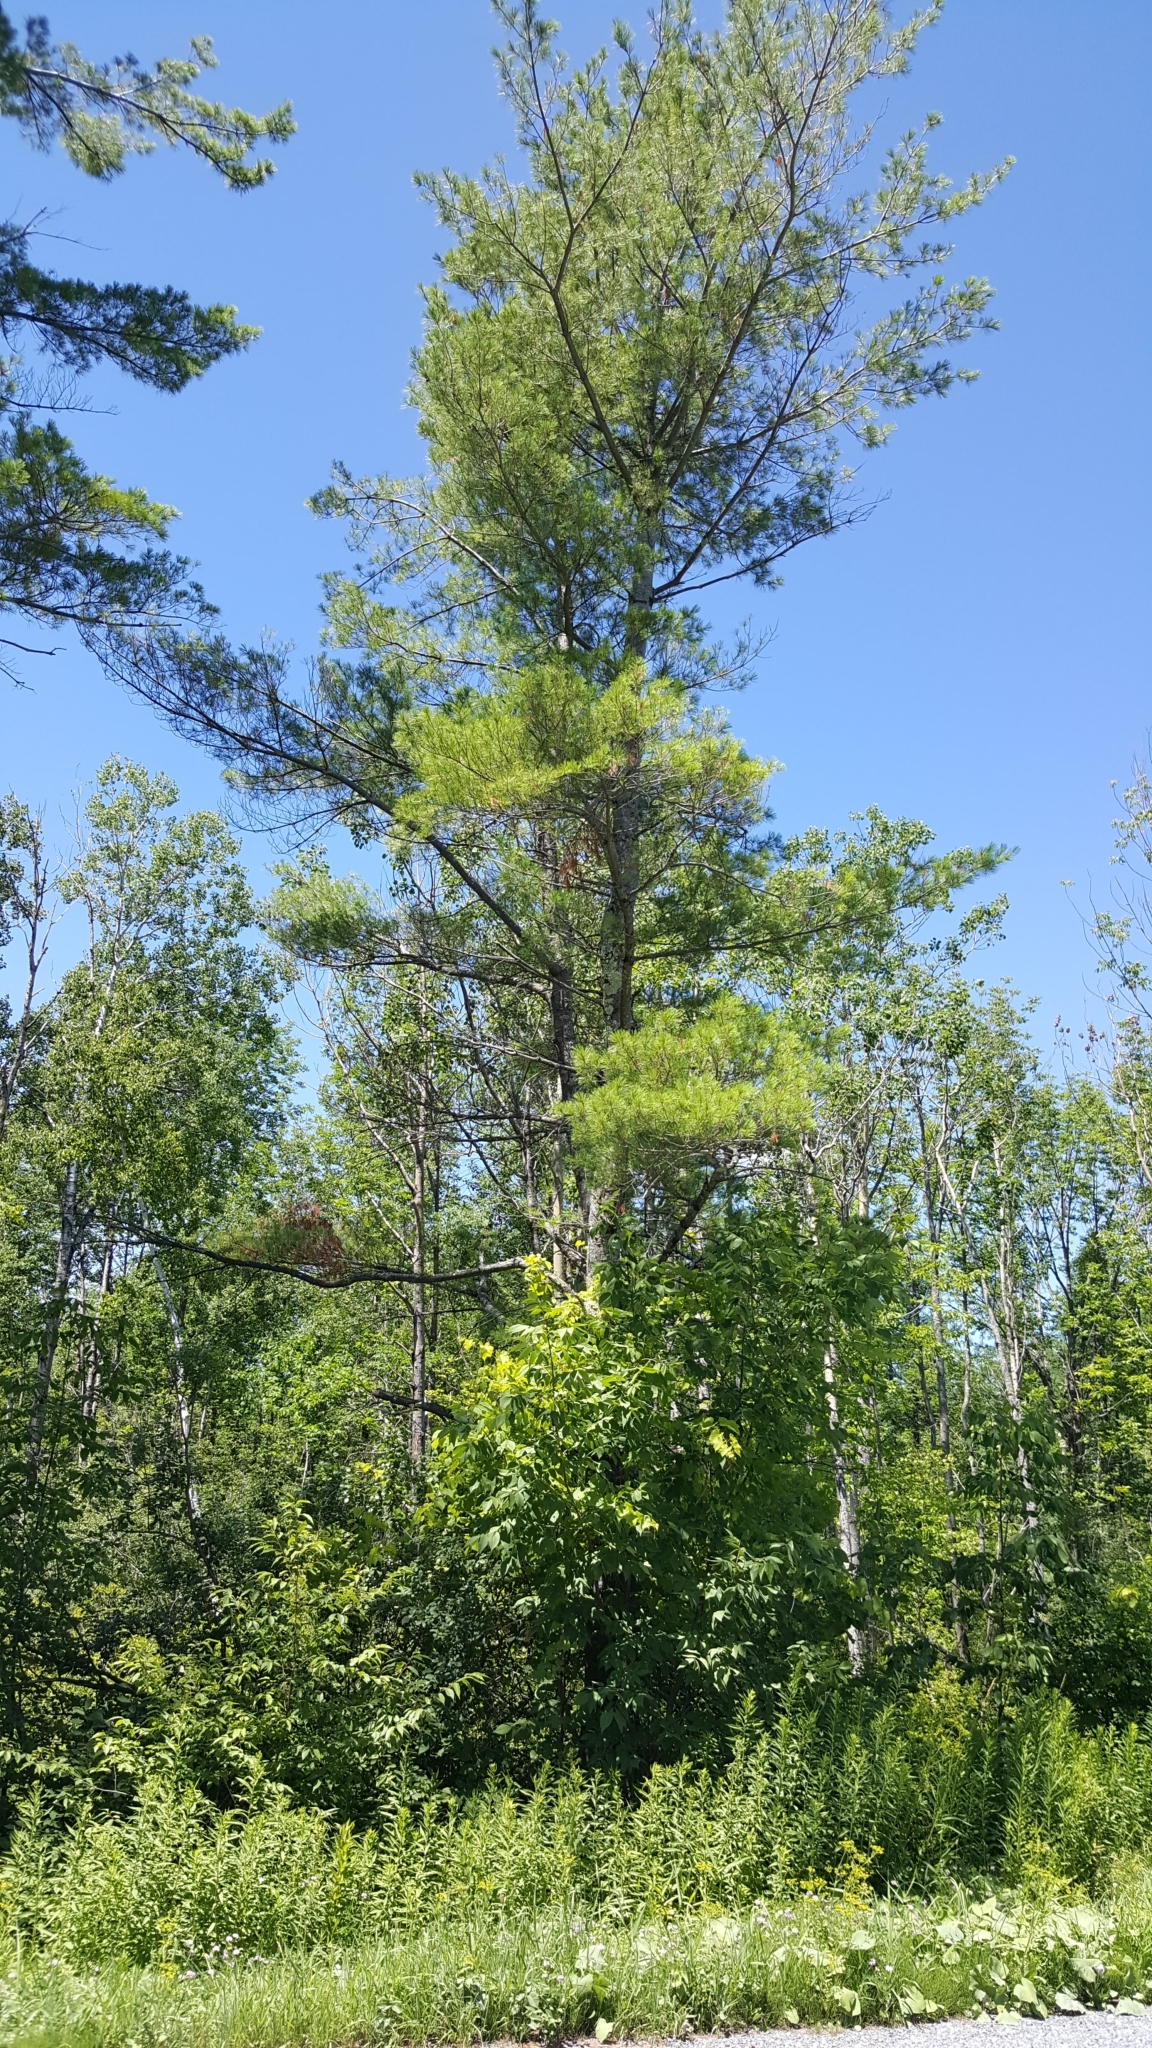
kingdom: Plantae
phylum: Tracheophyta
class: Pinopsida
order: Pinales
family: Pinaceae
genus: Pinus
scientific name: Pinus strobus
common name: Weymouth pine
